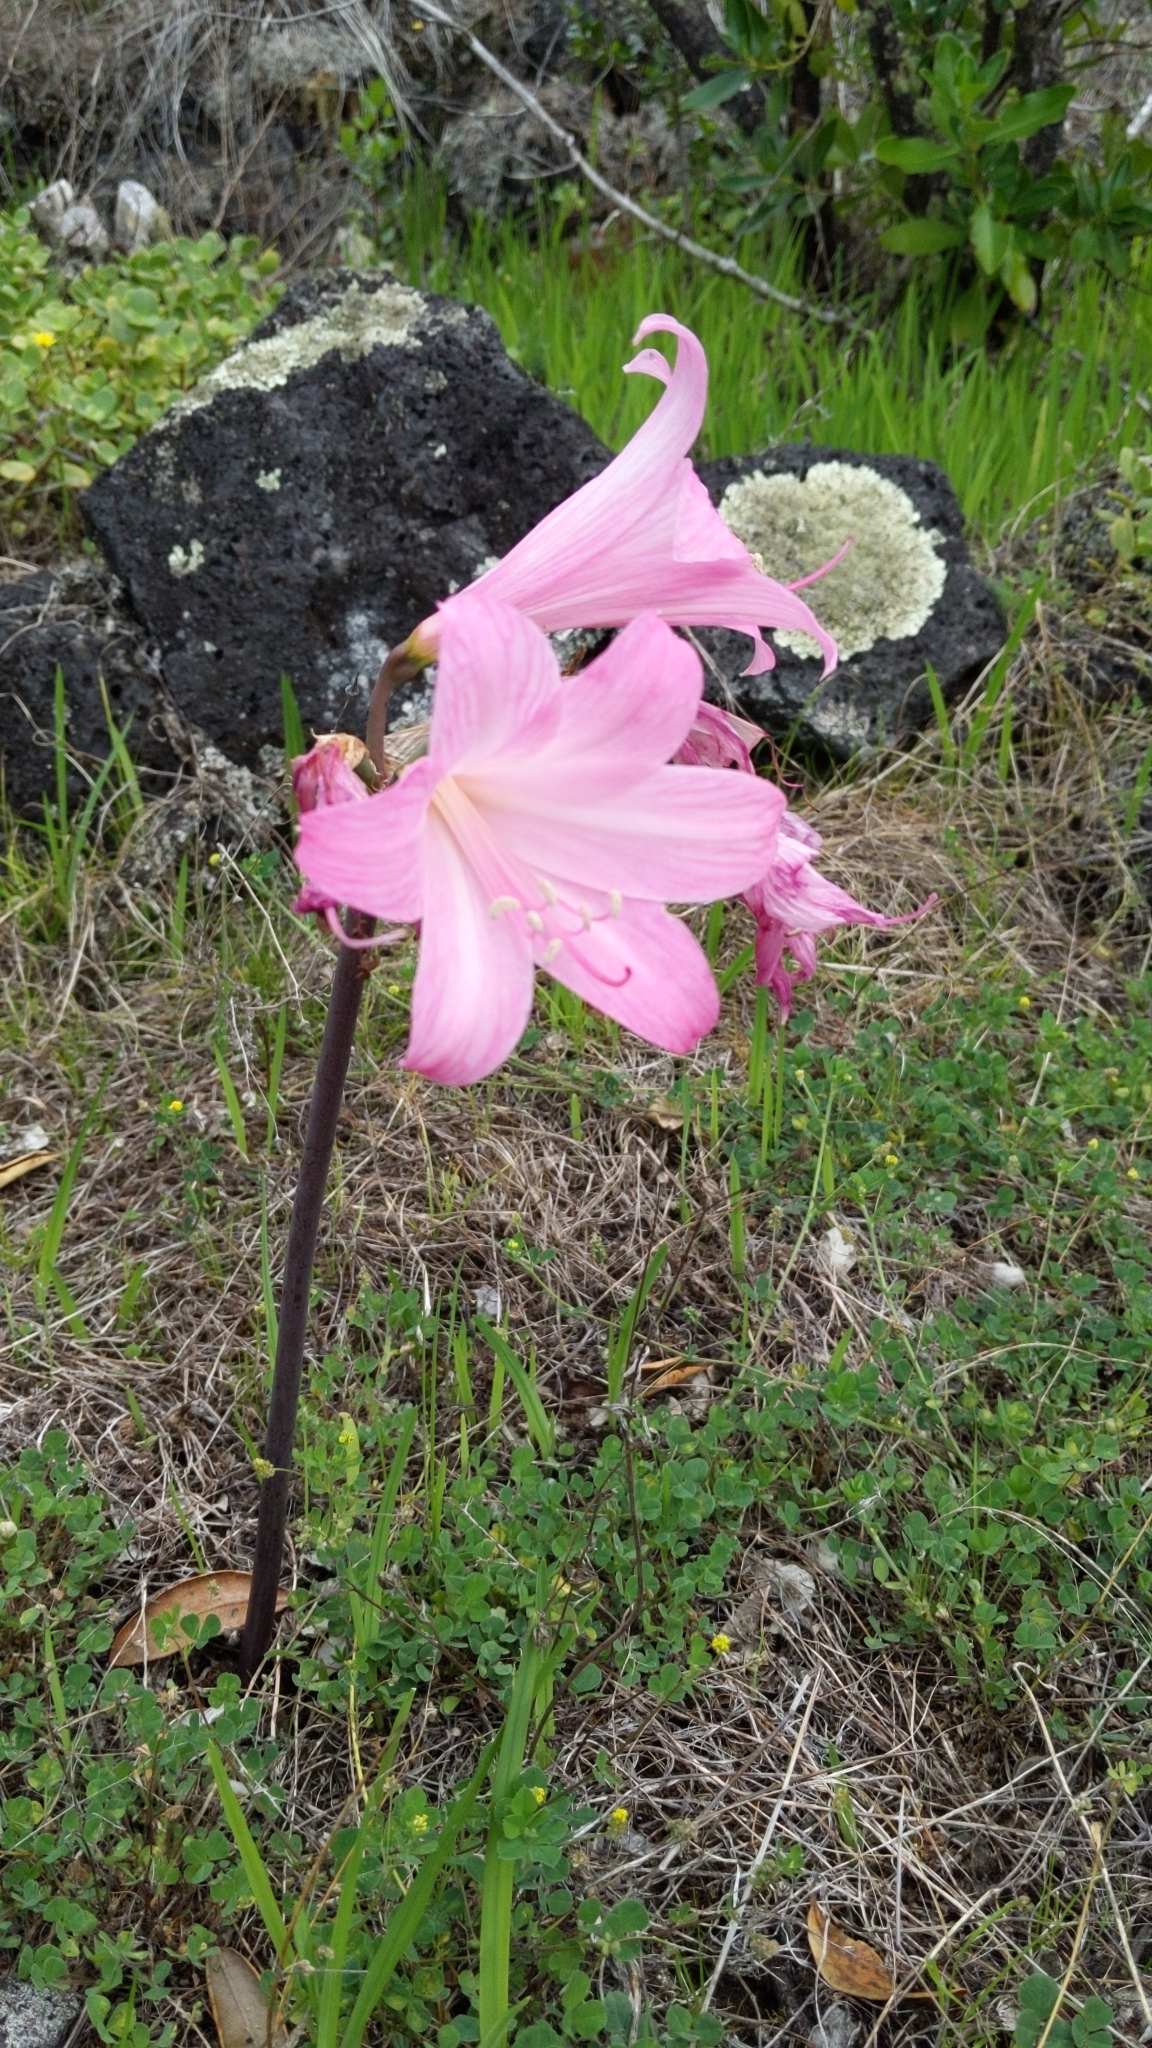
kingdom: Plantae
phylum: Tracheophyta
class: Liliopsida
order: Asparagales
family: Amaryllidaceae
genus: Amaryllis
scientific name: Amaryllis belladonna
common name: Jersey lily
